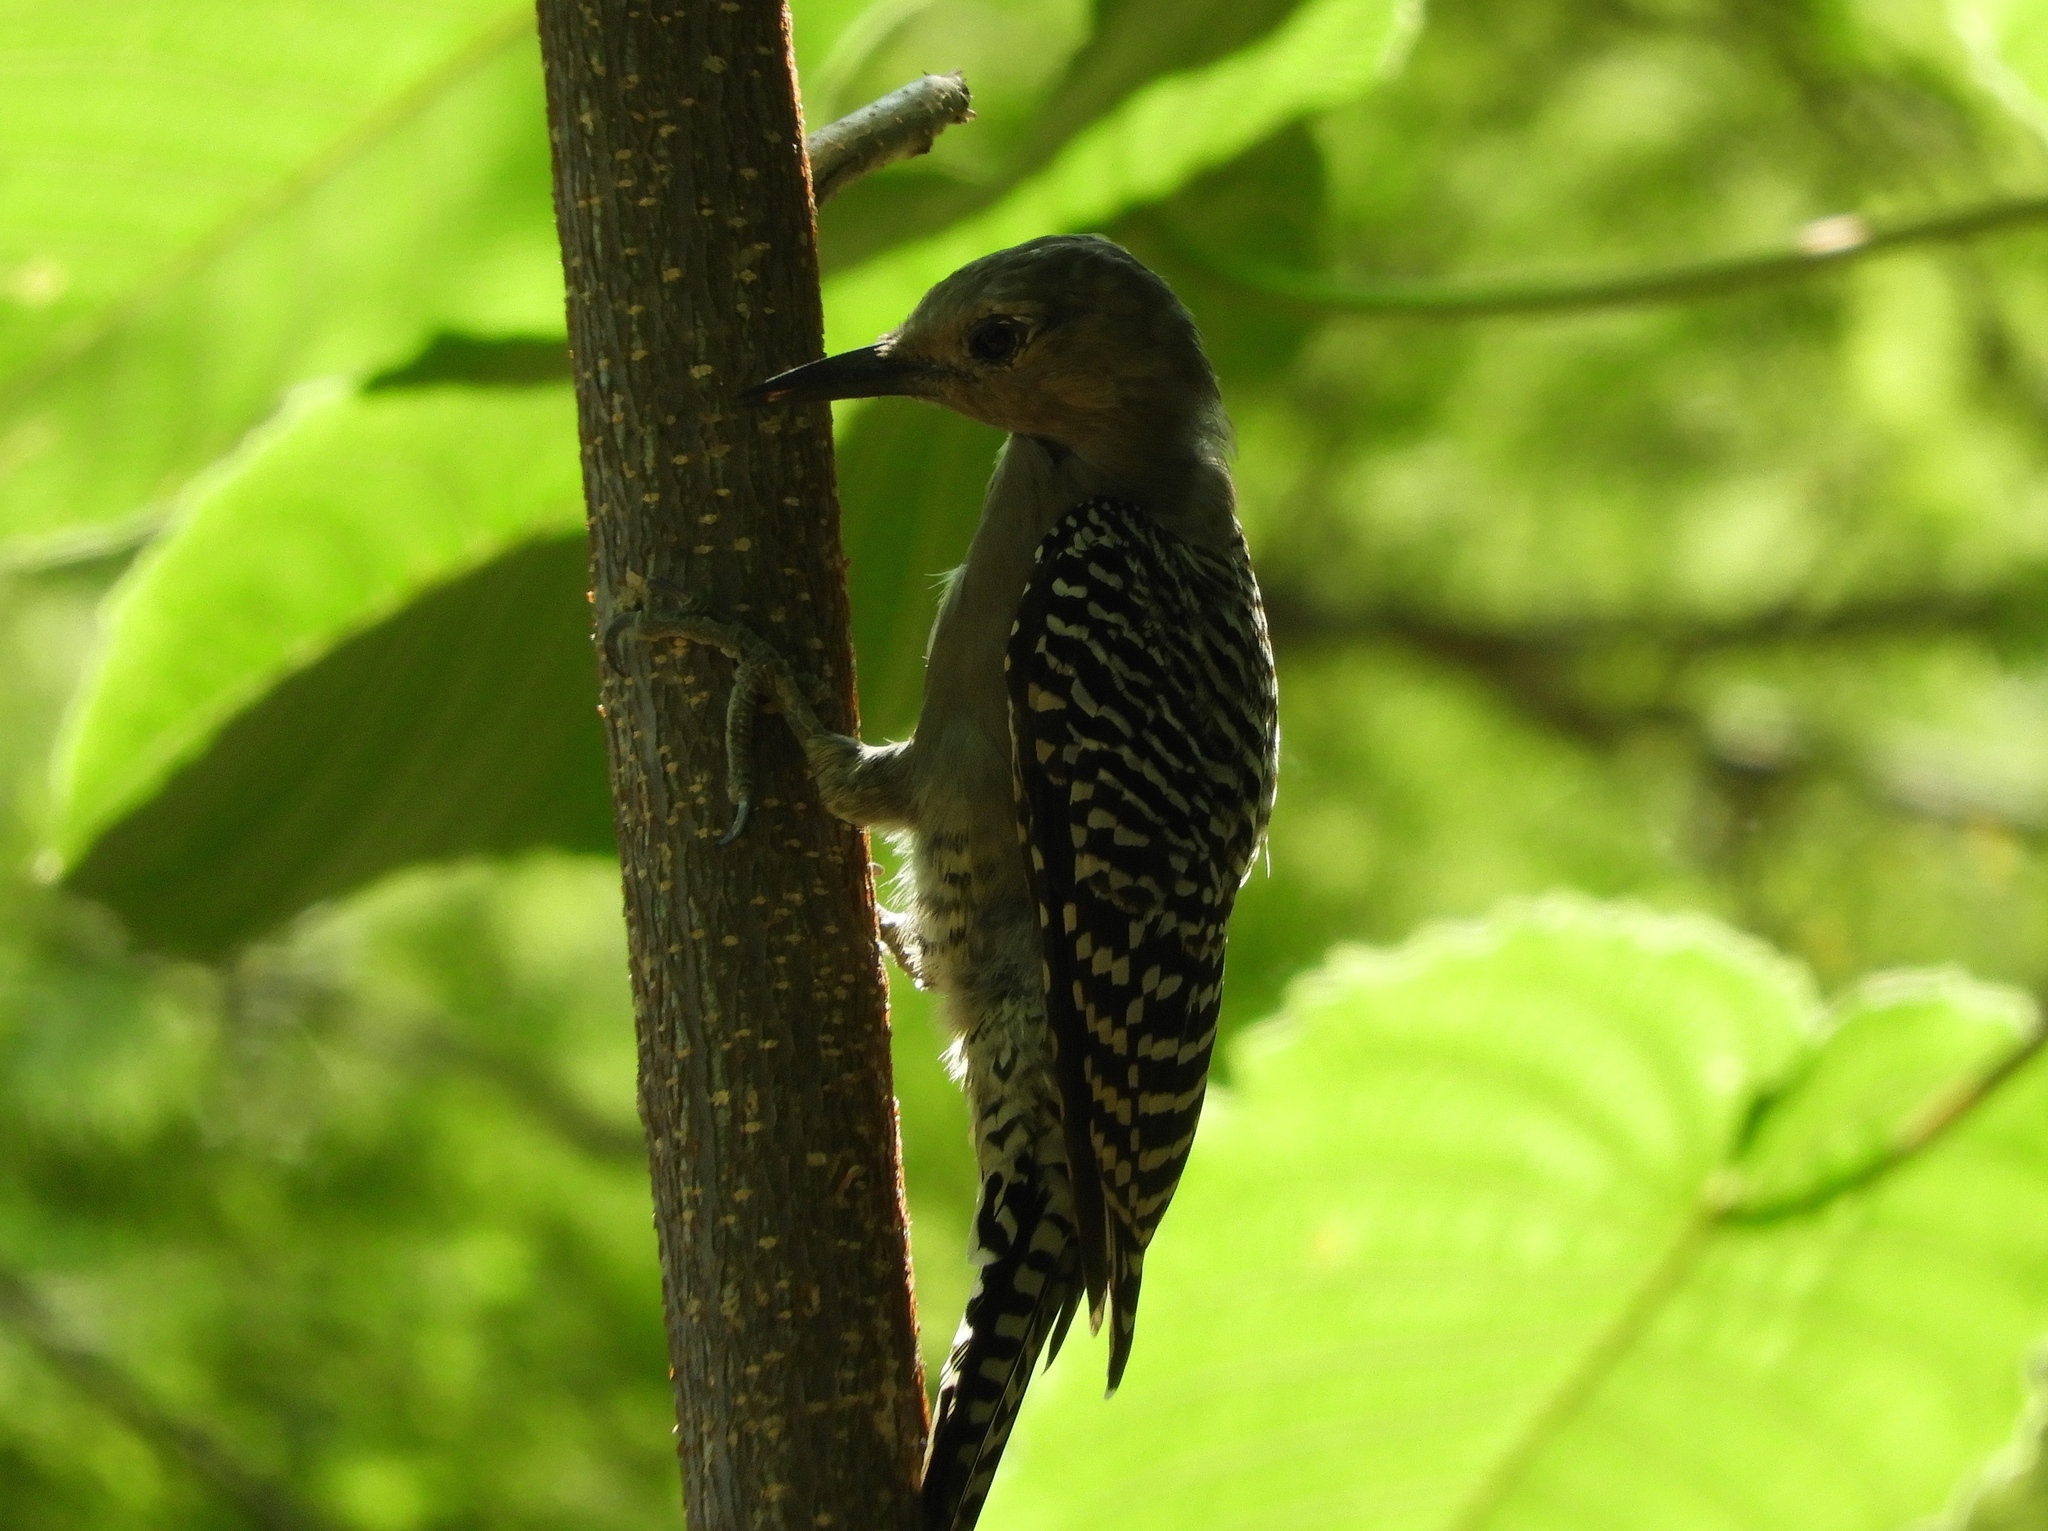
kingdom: Animalia
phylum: Chordata
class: Aves
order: Piciformes
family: Picidae
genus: Melanerpes
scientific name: Melanerpes uropygialis
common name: Gila woodpecker
